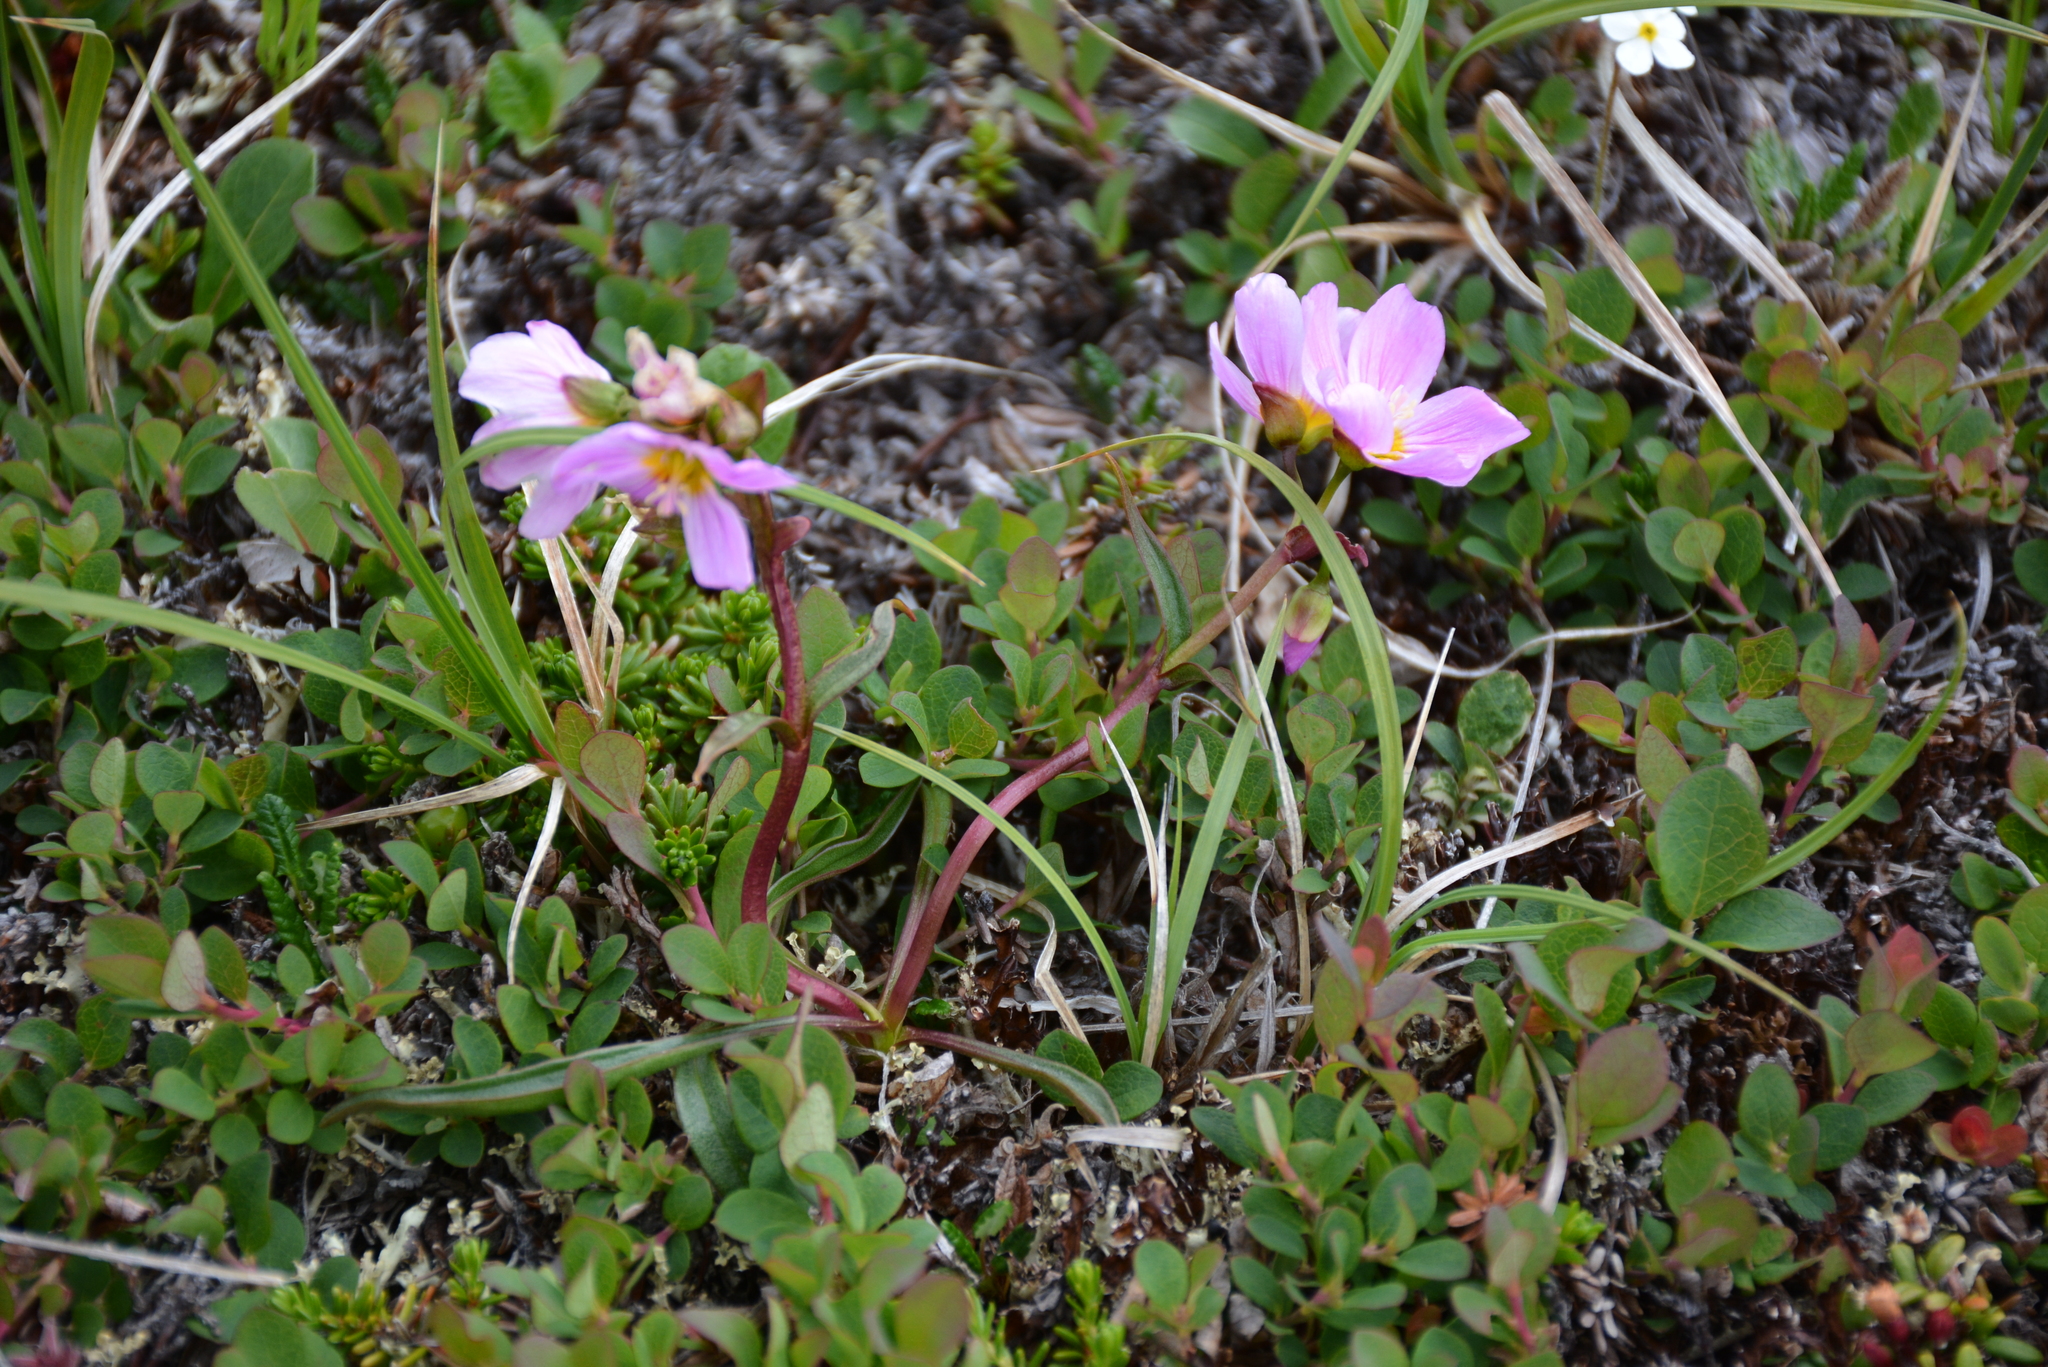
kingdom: Plantae
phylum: Tracheophyta
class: Magnoliopsida
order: Caryophyllales
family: Montiaceae
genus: Claytonia
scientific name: Claytonia acutifolia
